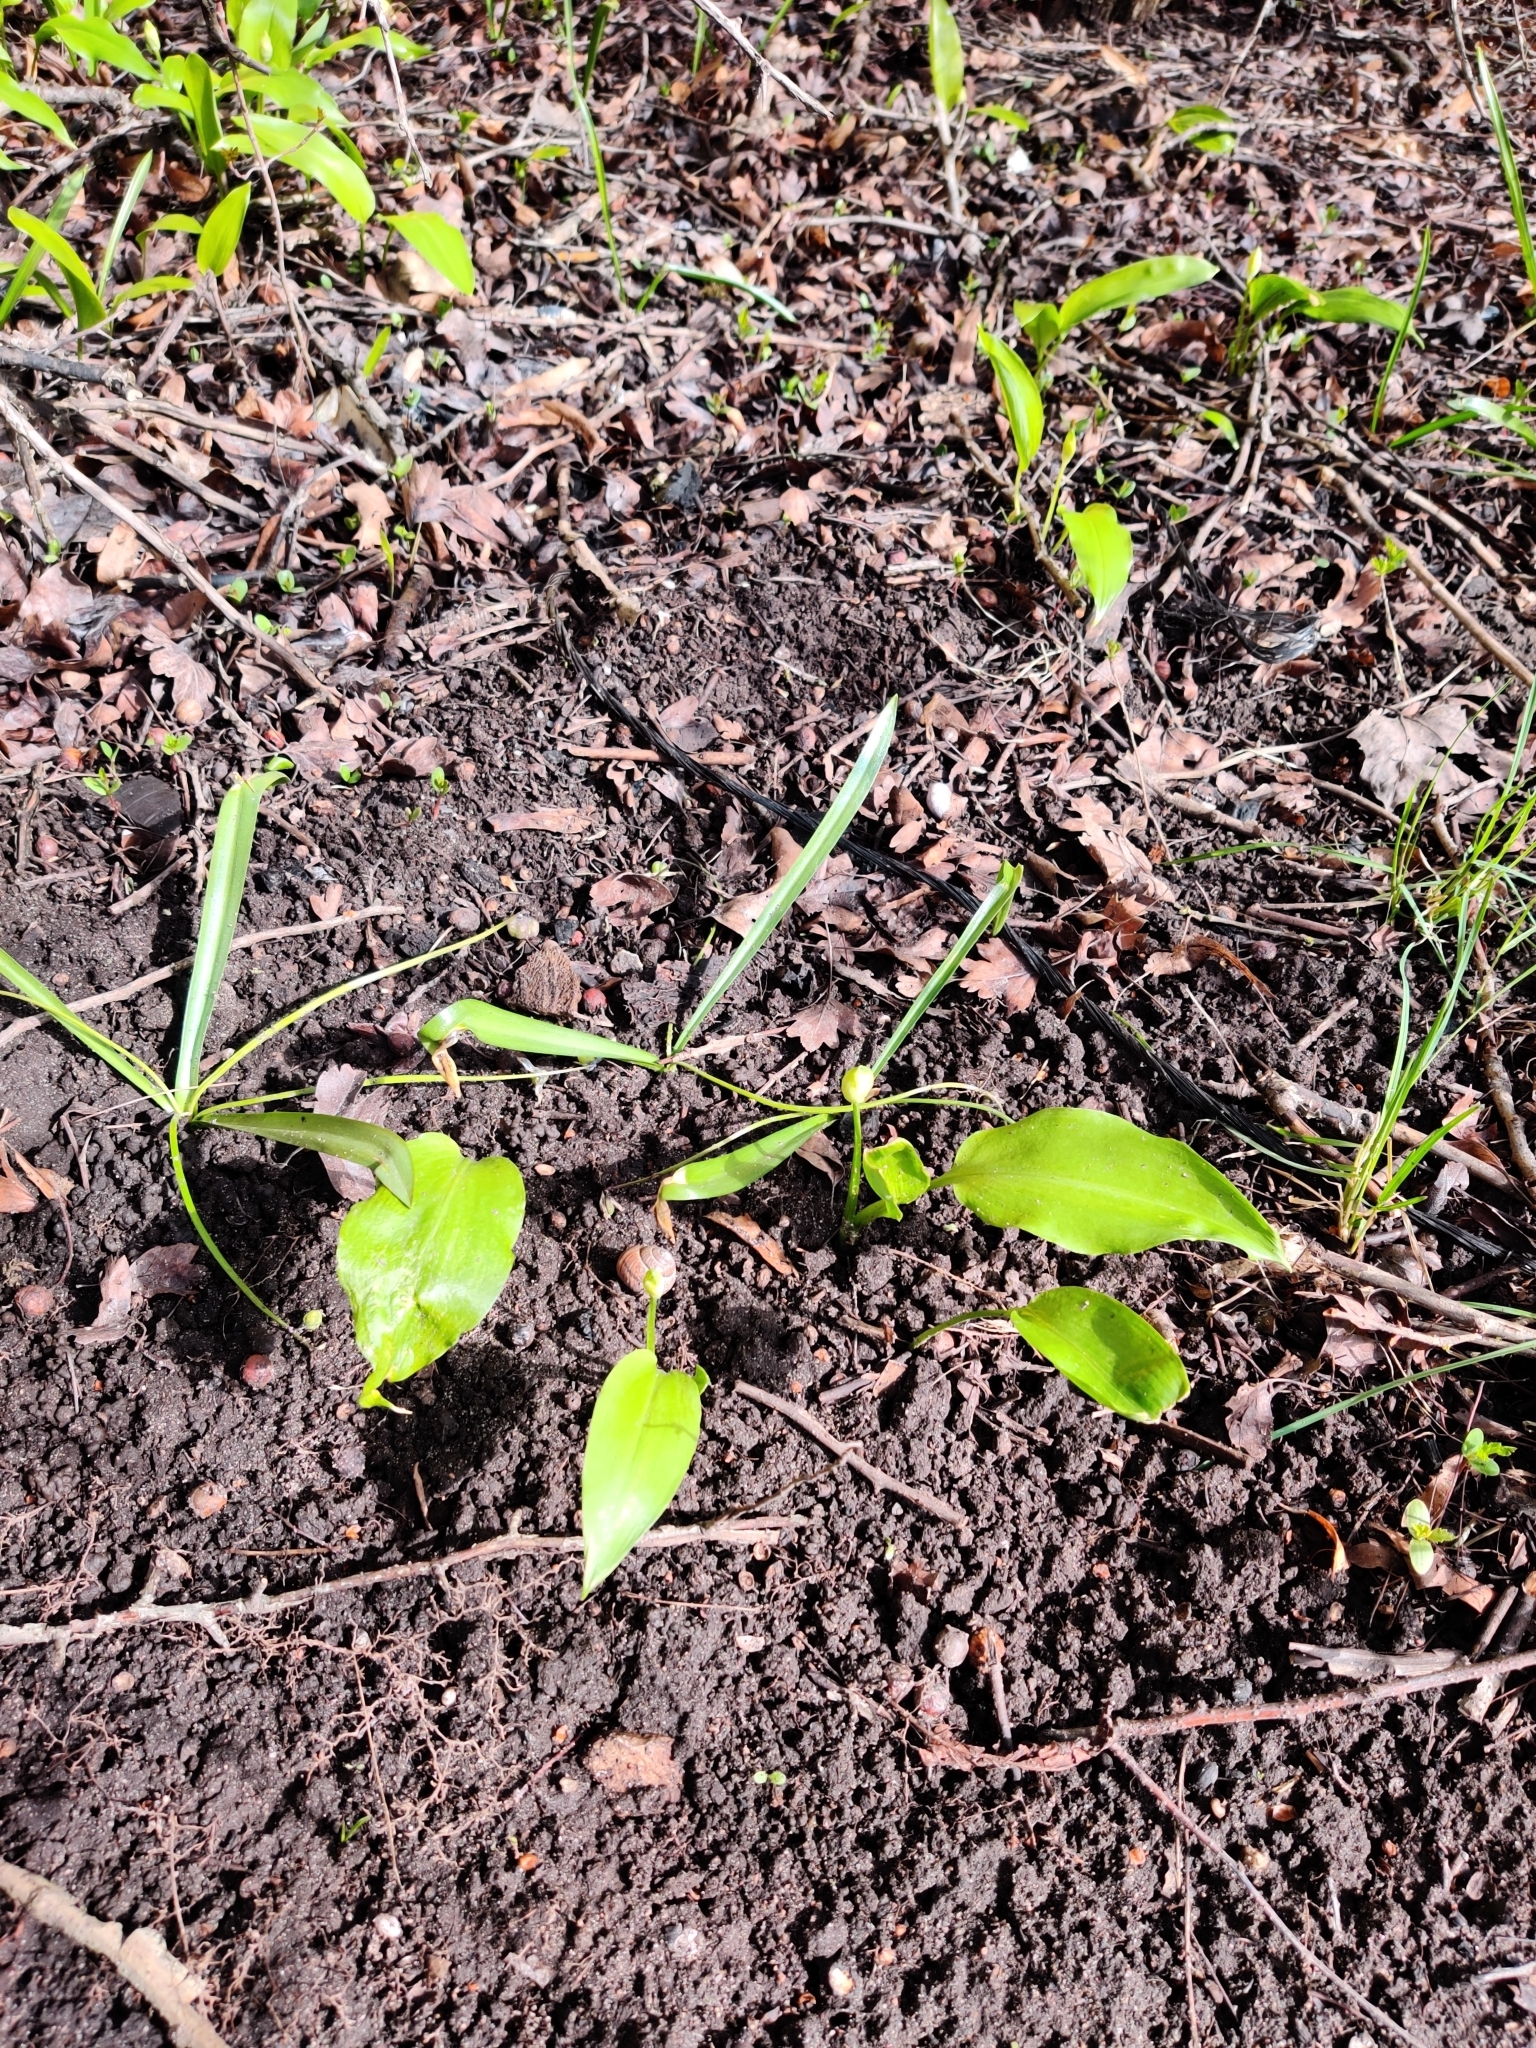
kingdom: Plantae
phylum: Tracheophyta
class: Liliopsida
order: Asparagales
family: Amaryllidaceae
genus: Allium
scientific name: Allium ursinum
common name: Ramsons
